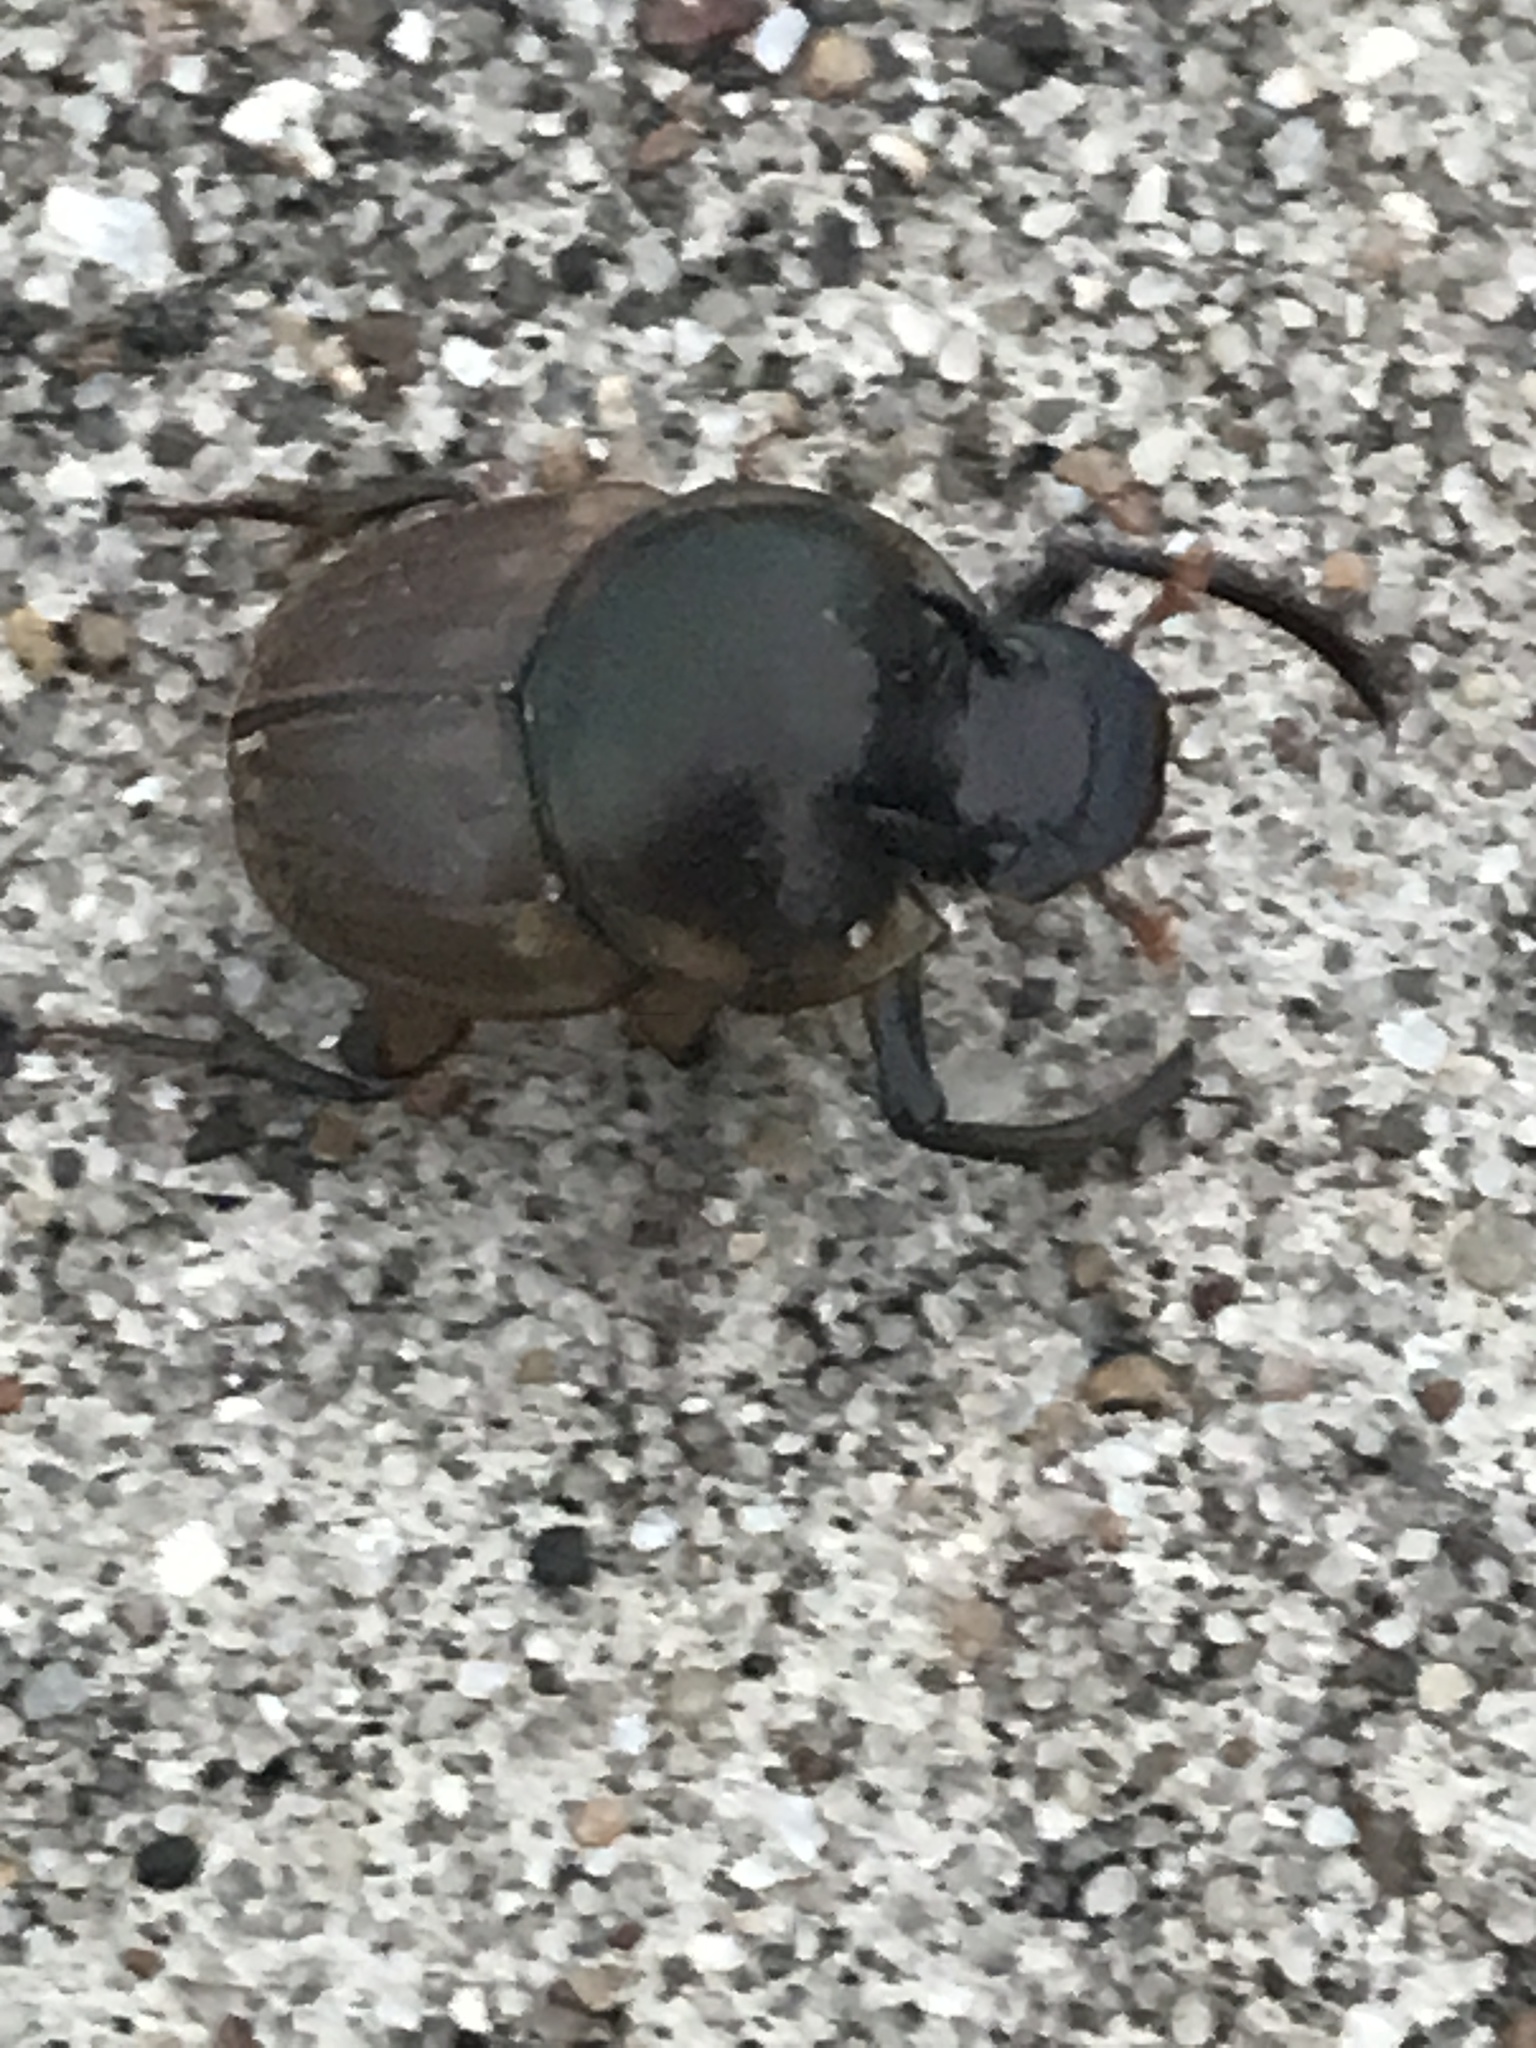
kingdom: Animalia
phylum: Arthropoda
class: Insecta
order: Coleoptera
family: Scarabaeidae
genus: Digitonthophagus
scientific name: Digitonthophagus gazella
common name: Brown dung beetle
